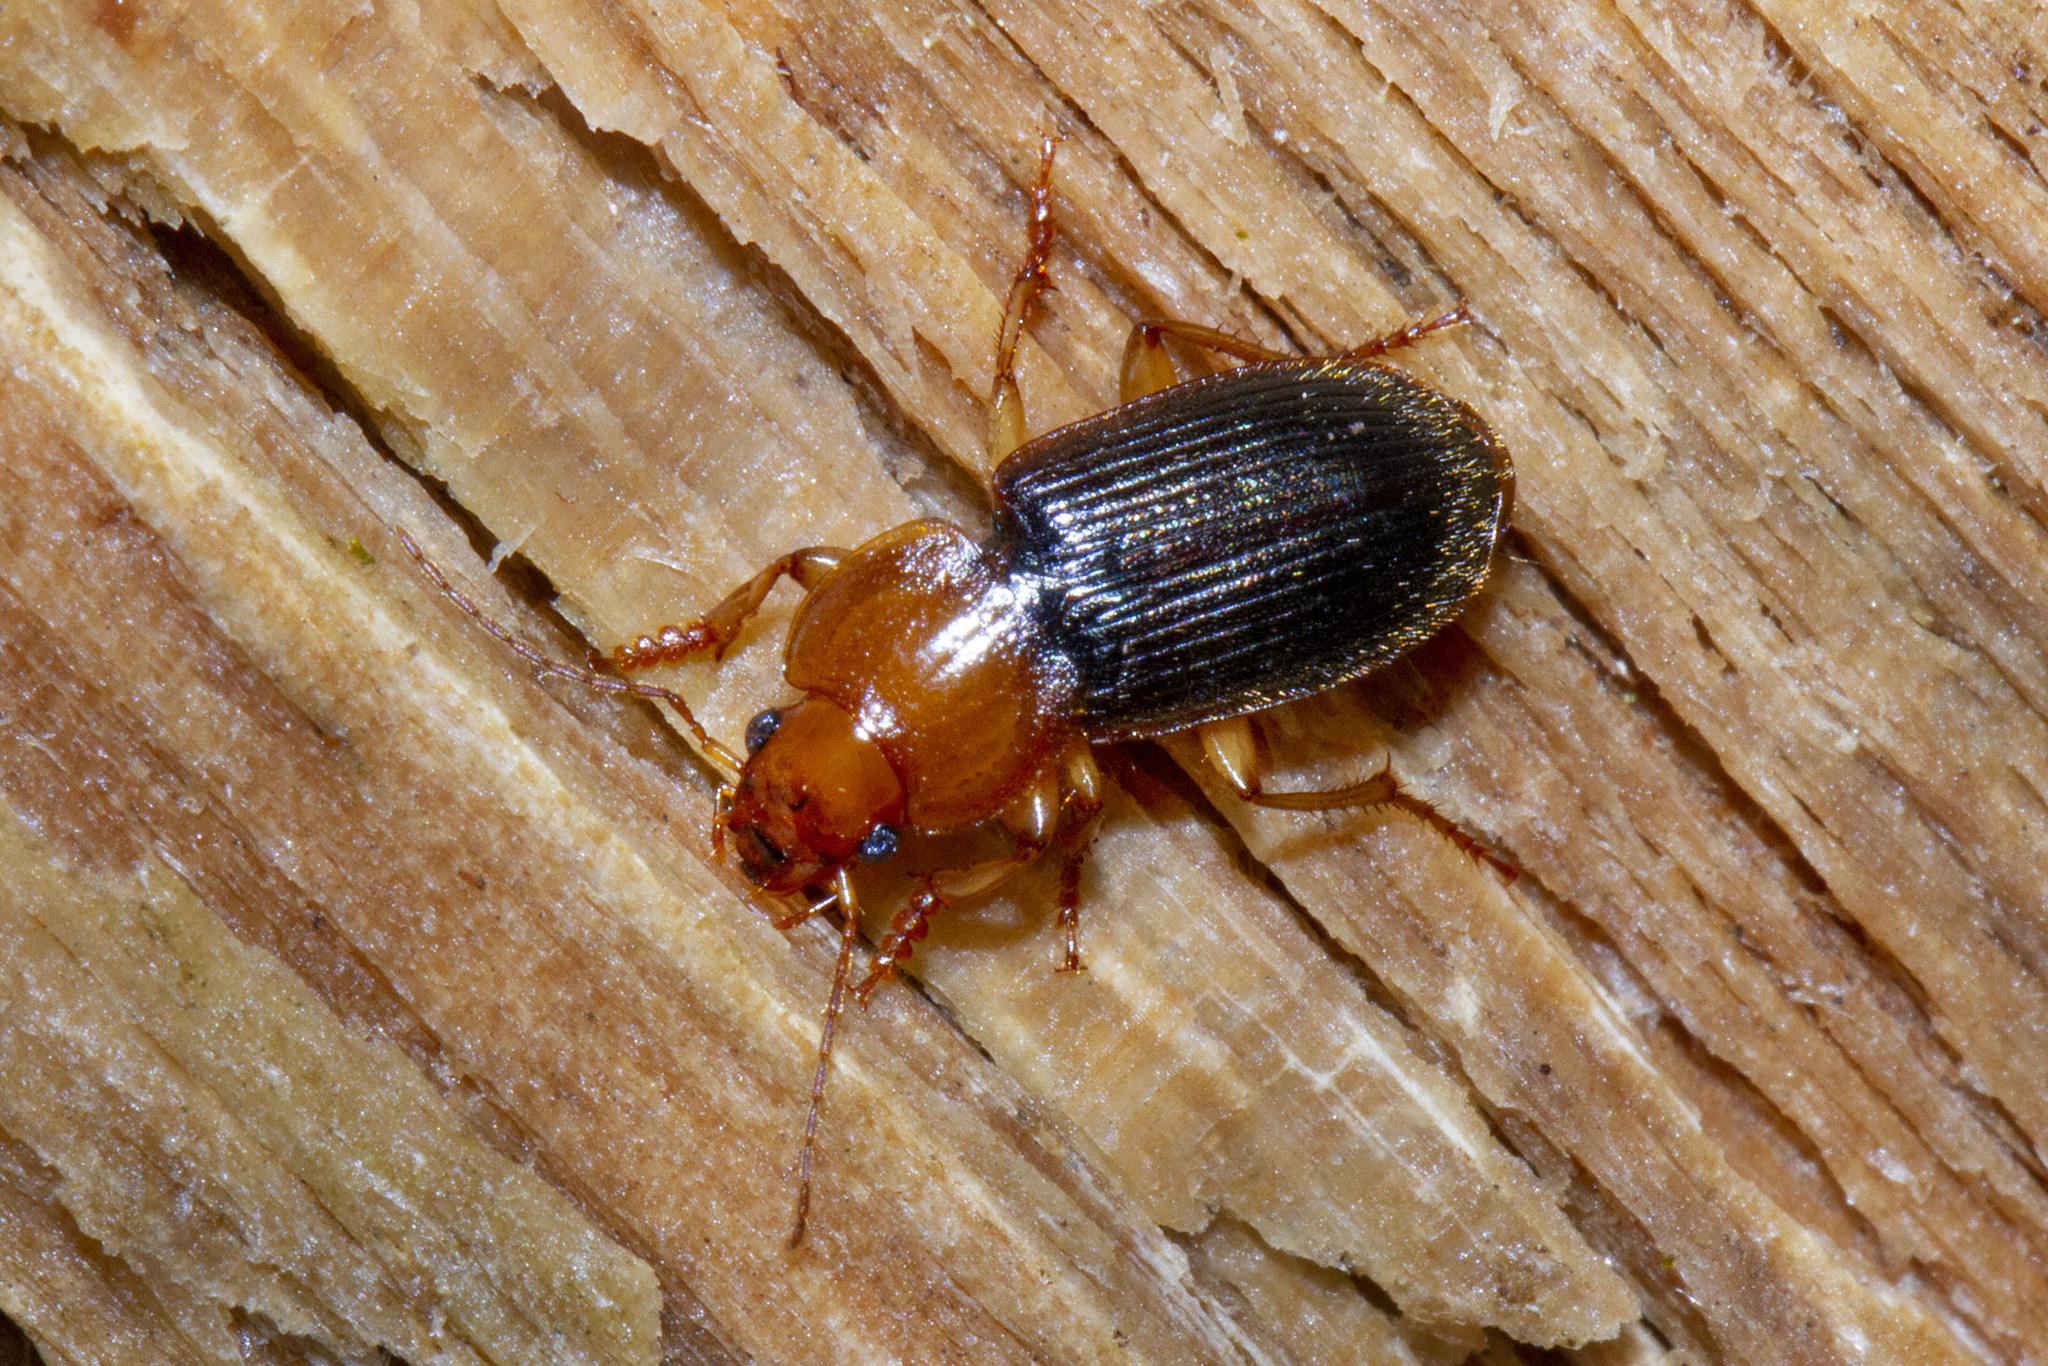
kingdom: Animalia
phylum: Arthropoda
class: Insecta
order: Coleoptera
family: Carabidae
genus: Amphasia
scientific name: Amphasia interstitialis
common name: Red-headed ground beetle
